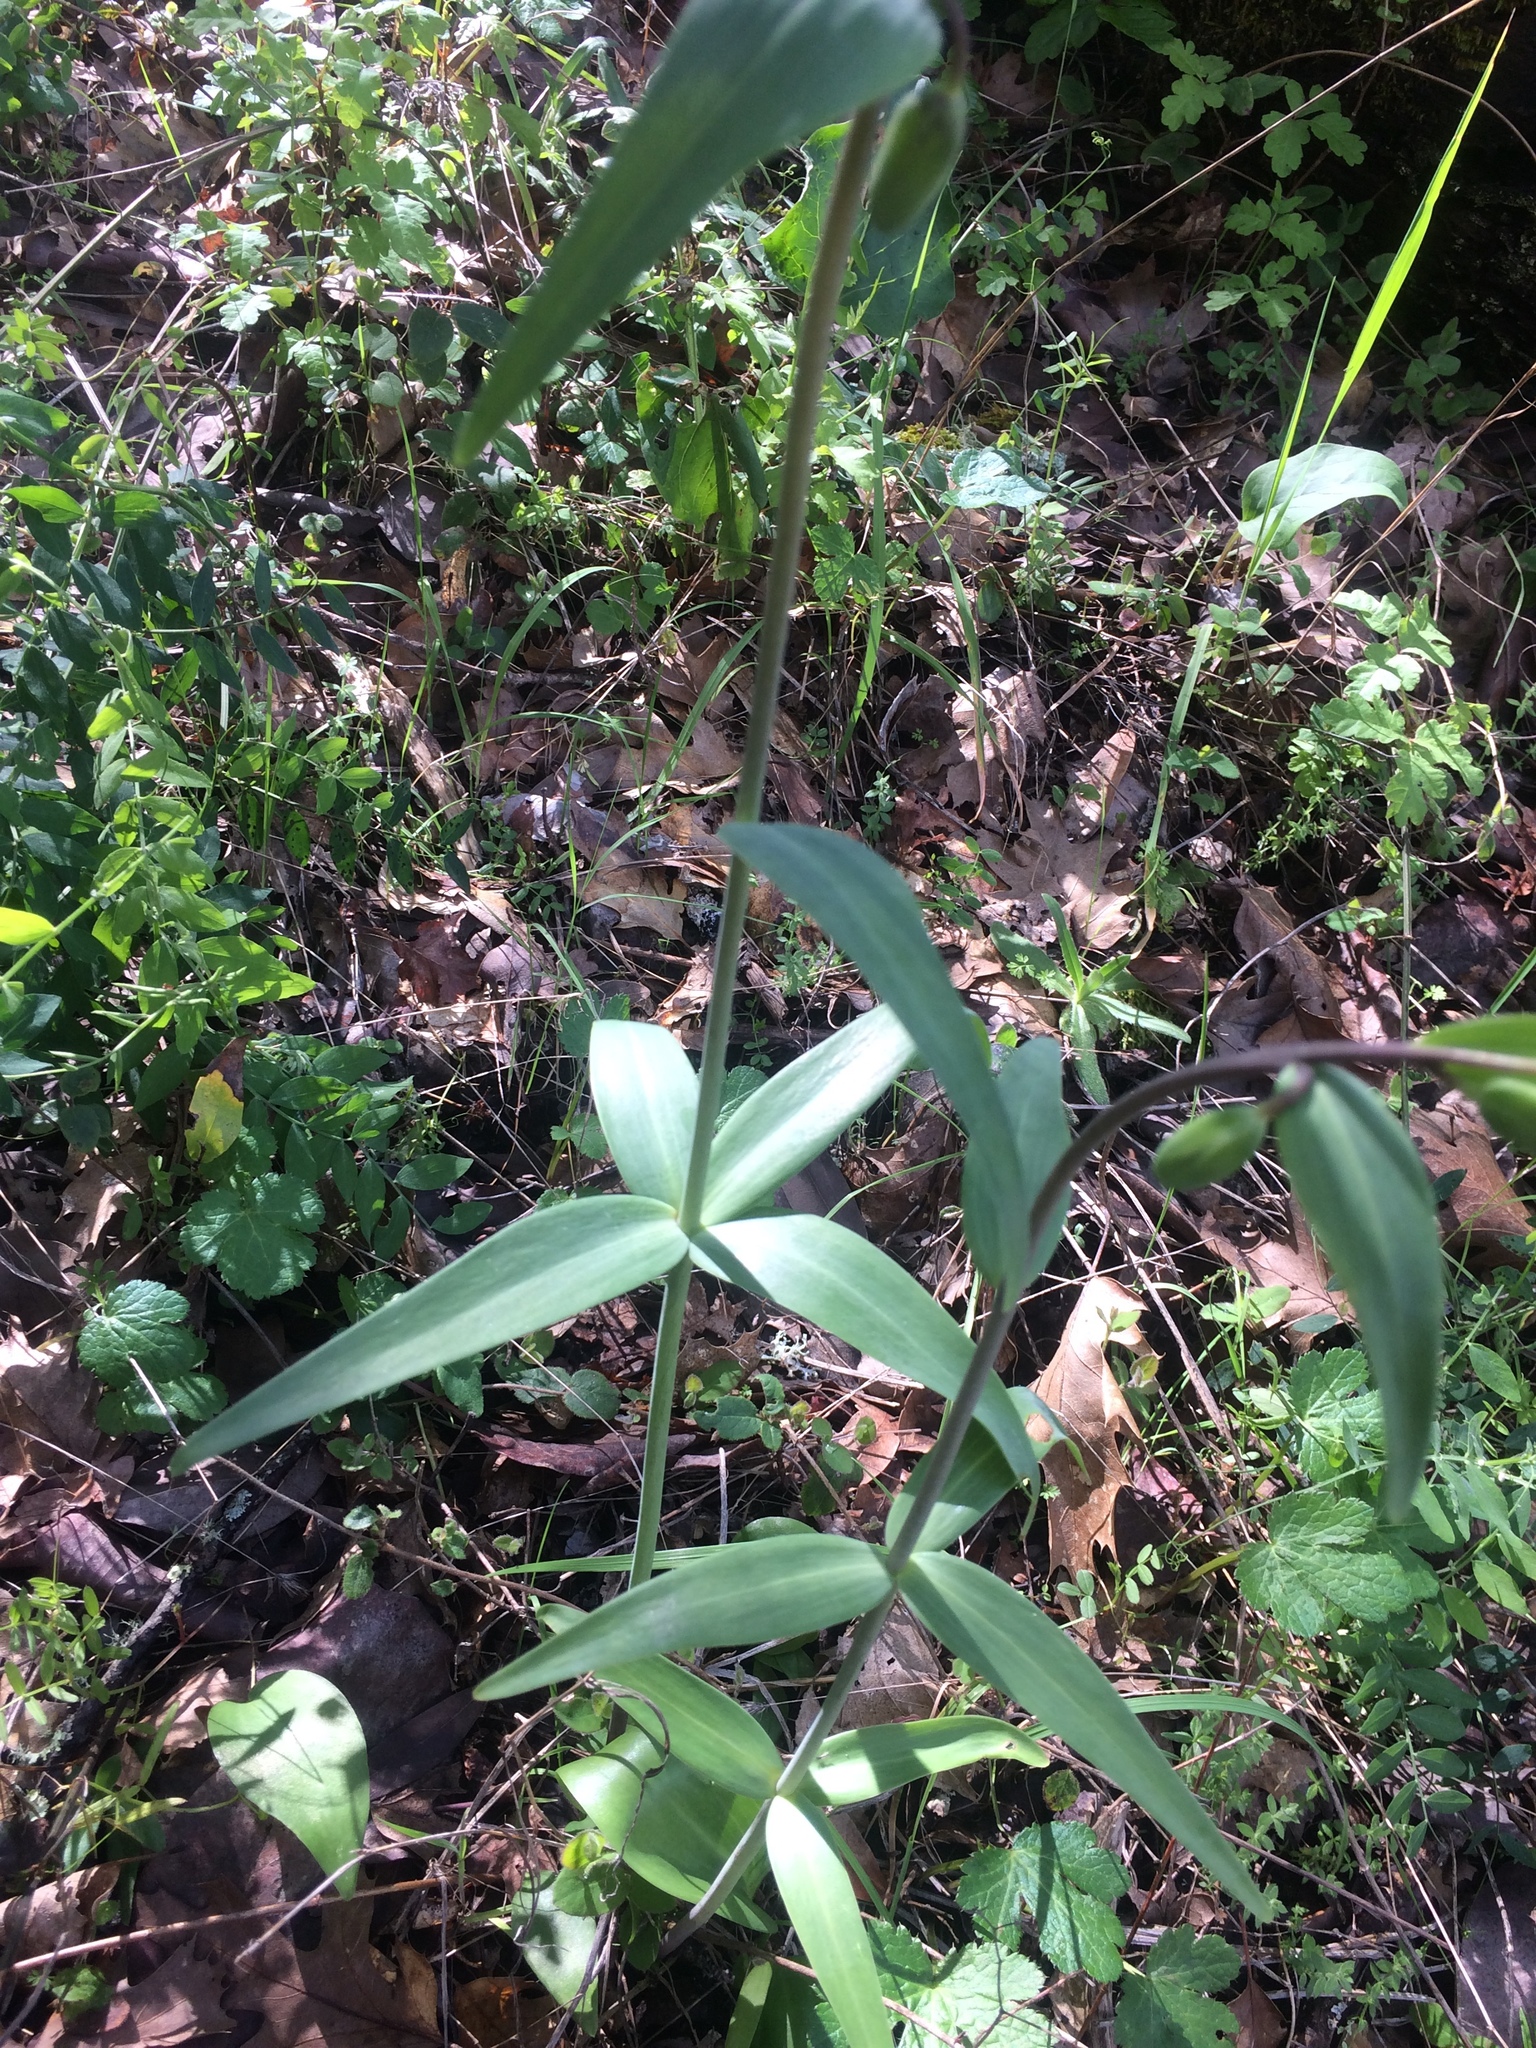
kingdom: Plantae
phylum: Tracheophyta
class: Liliopsida
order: Liliales
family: Liliaceae
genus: Fritillaria
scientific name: Fritillaria affinis
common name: Ojai fritillary
